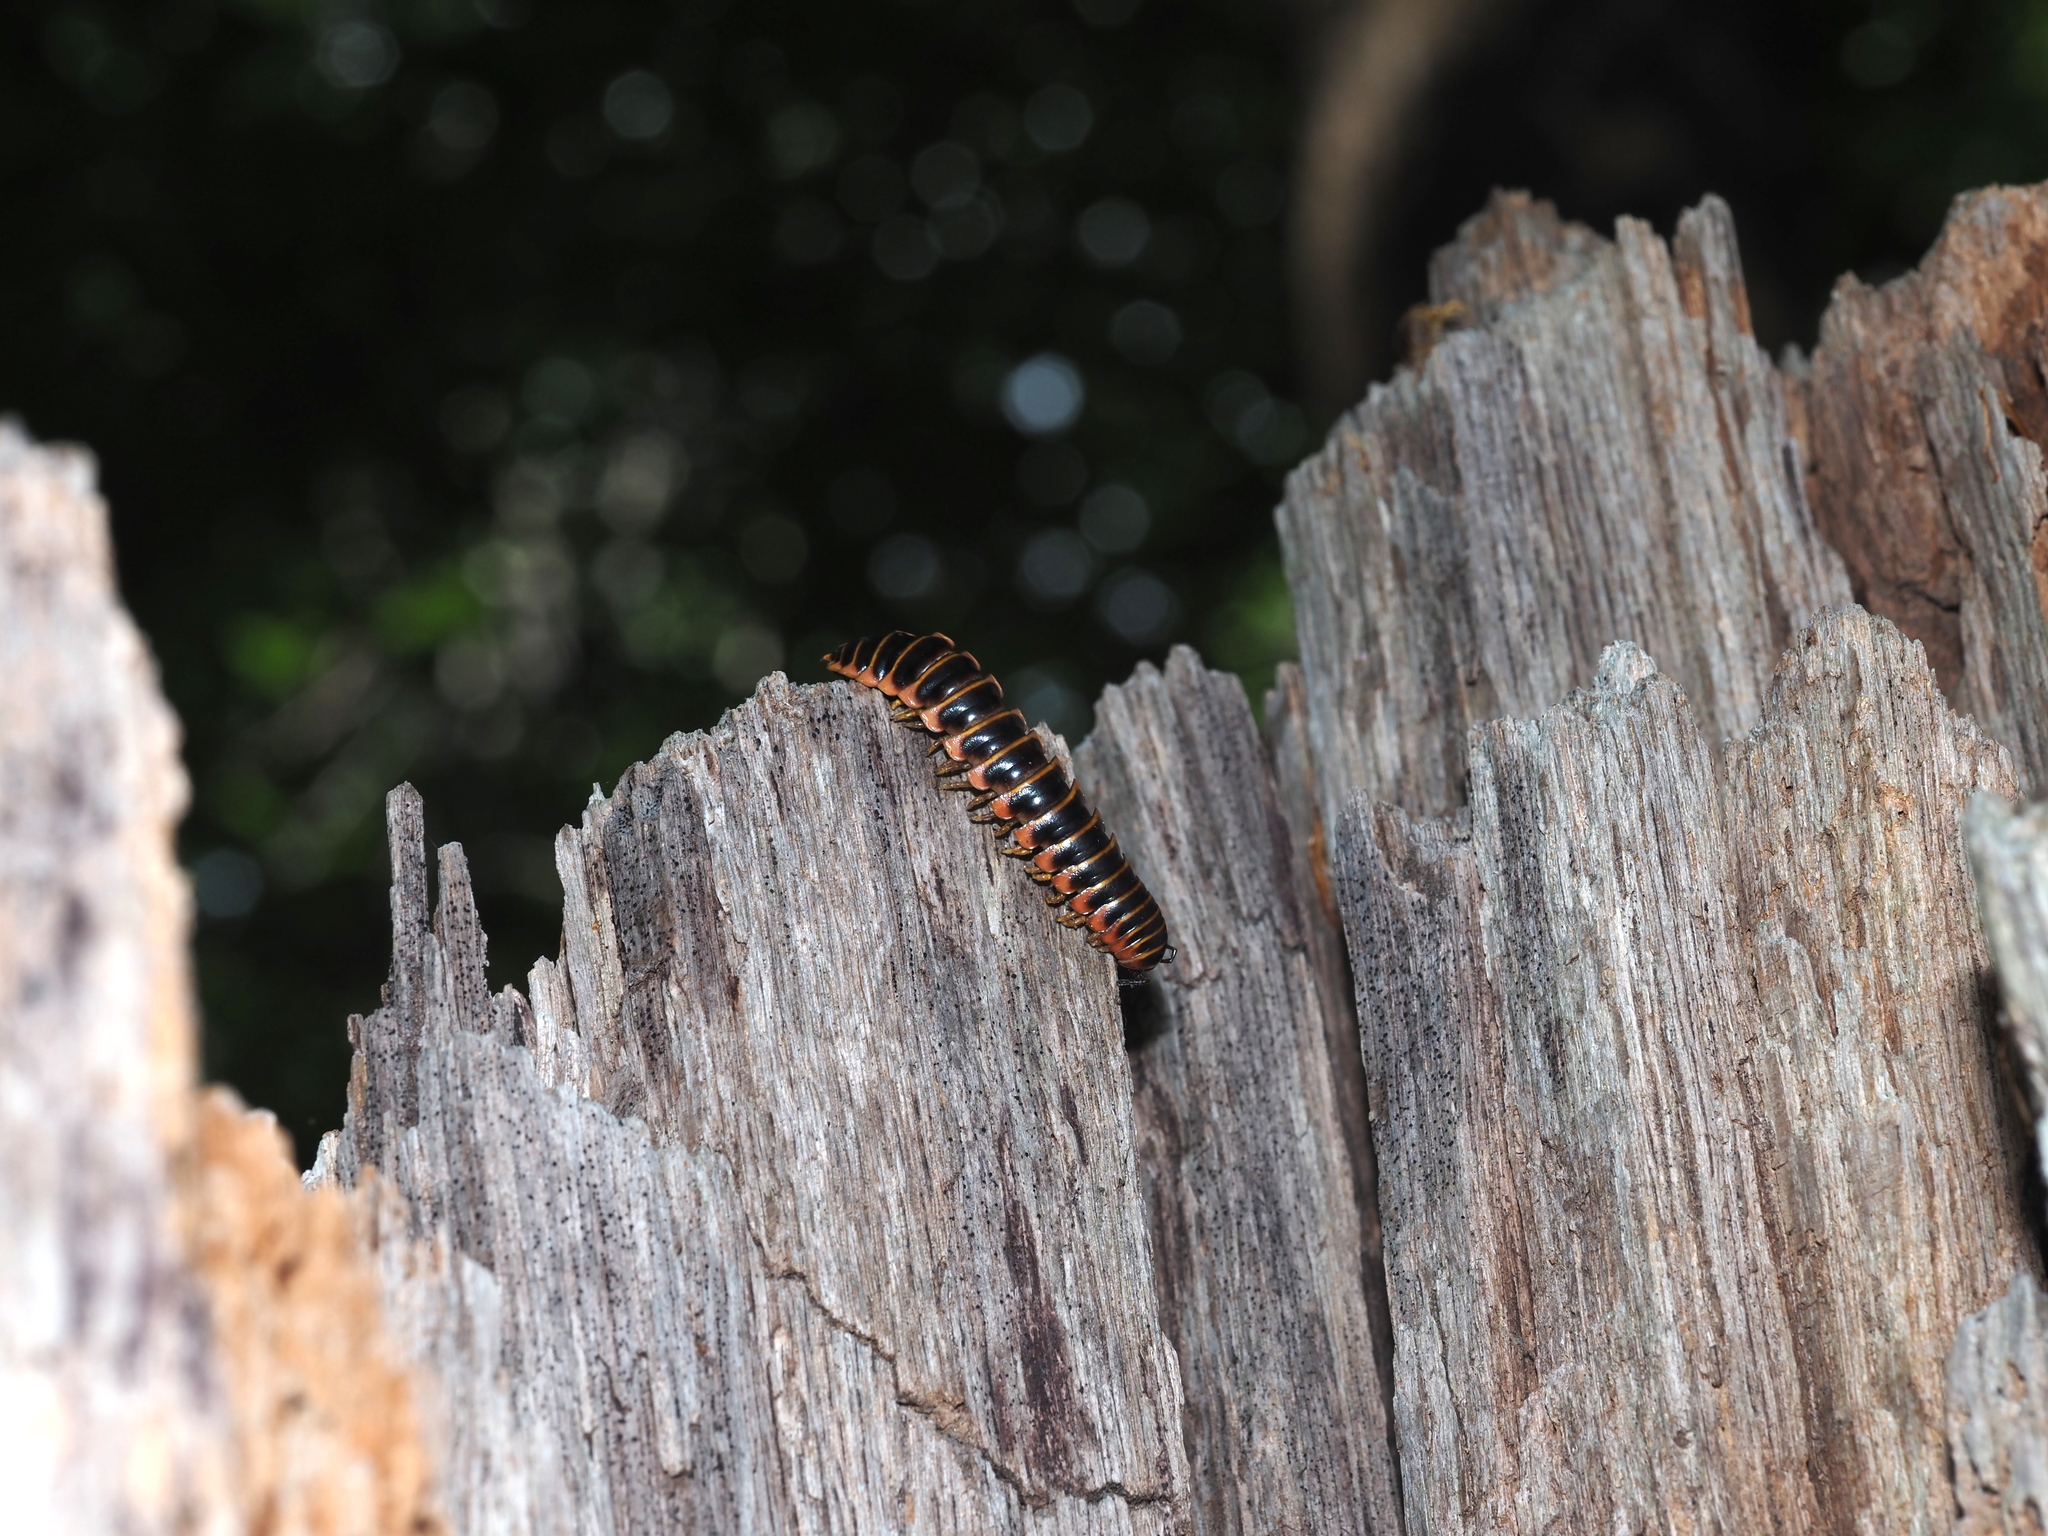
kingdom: Animalia
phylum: Arthropoda
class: Diplopoda
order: Polydesmida
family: Xystodesmidae
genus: Apheloria
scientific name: Apheloria virginiensis
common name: Black-and-gold flat millipede
